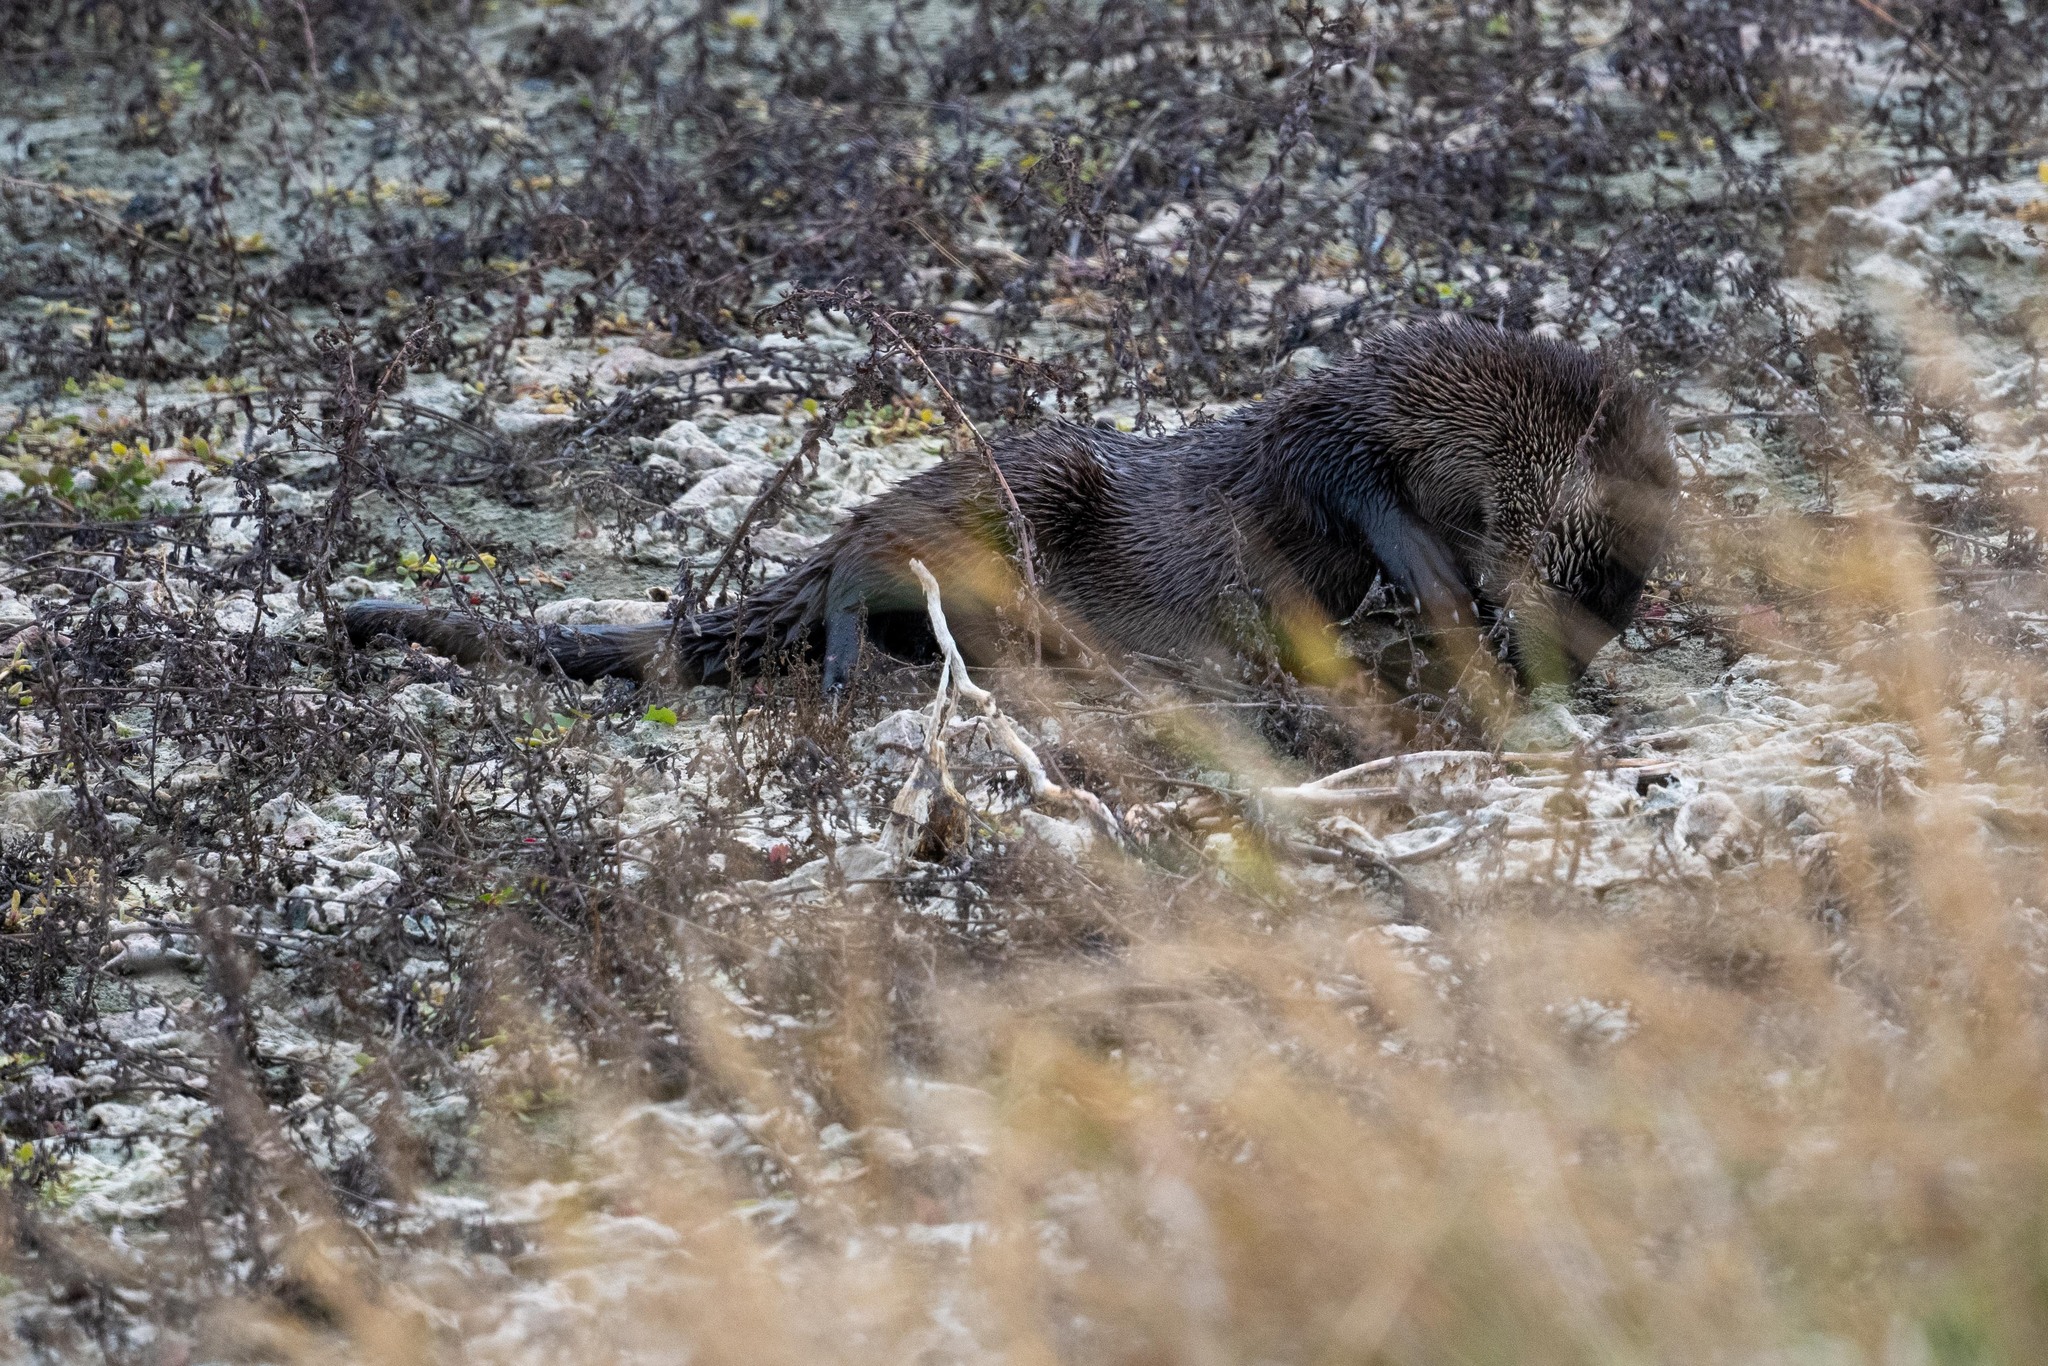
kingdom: Animalia
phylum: Chordata
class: Mammalia
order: Carnivora
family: Mustelidae
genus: Lontra
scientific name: Lontra canadensis
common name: North american river otter
